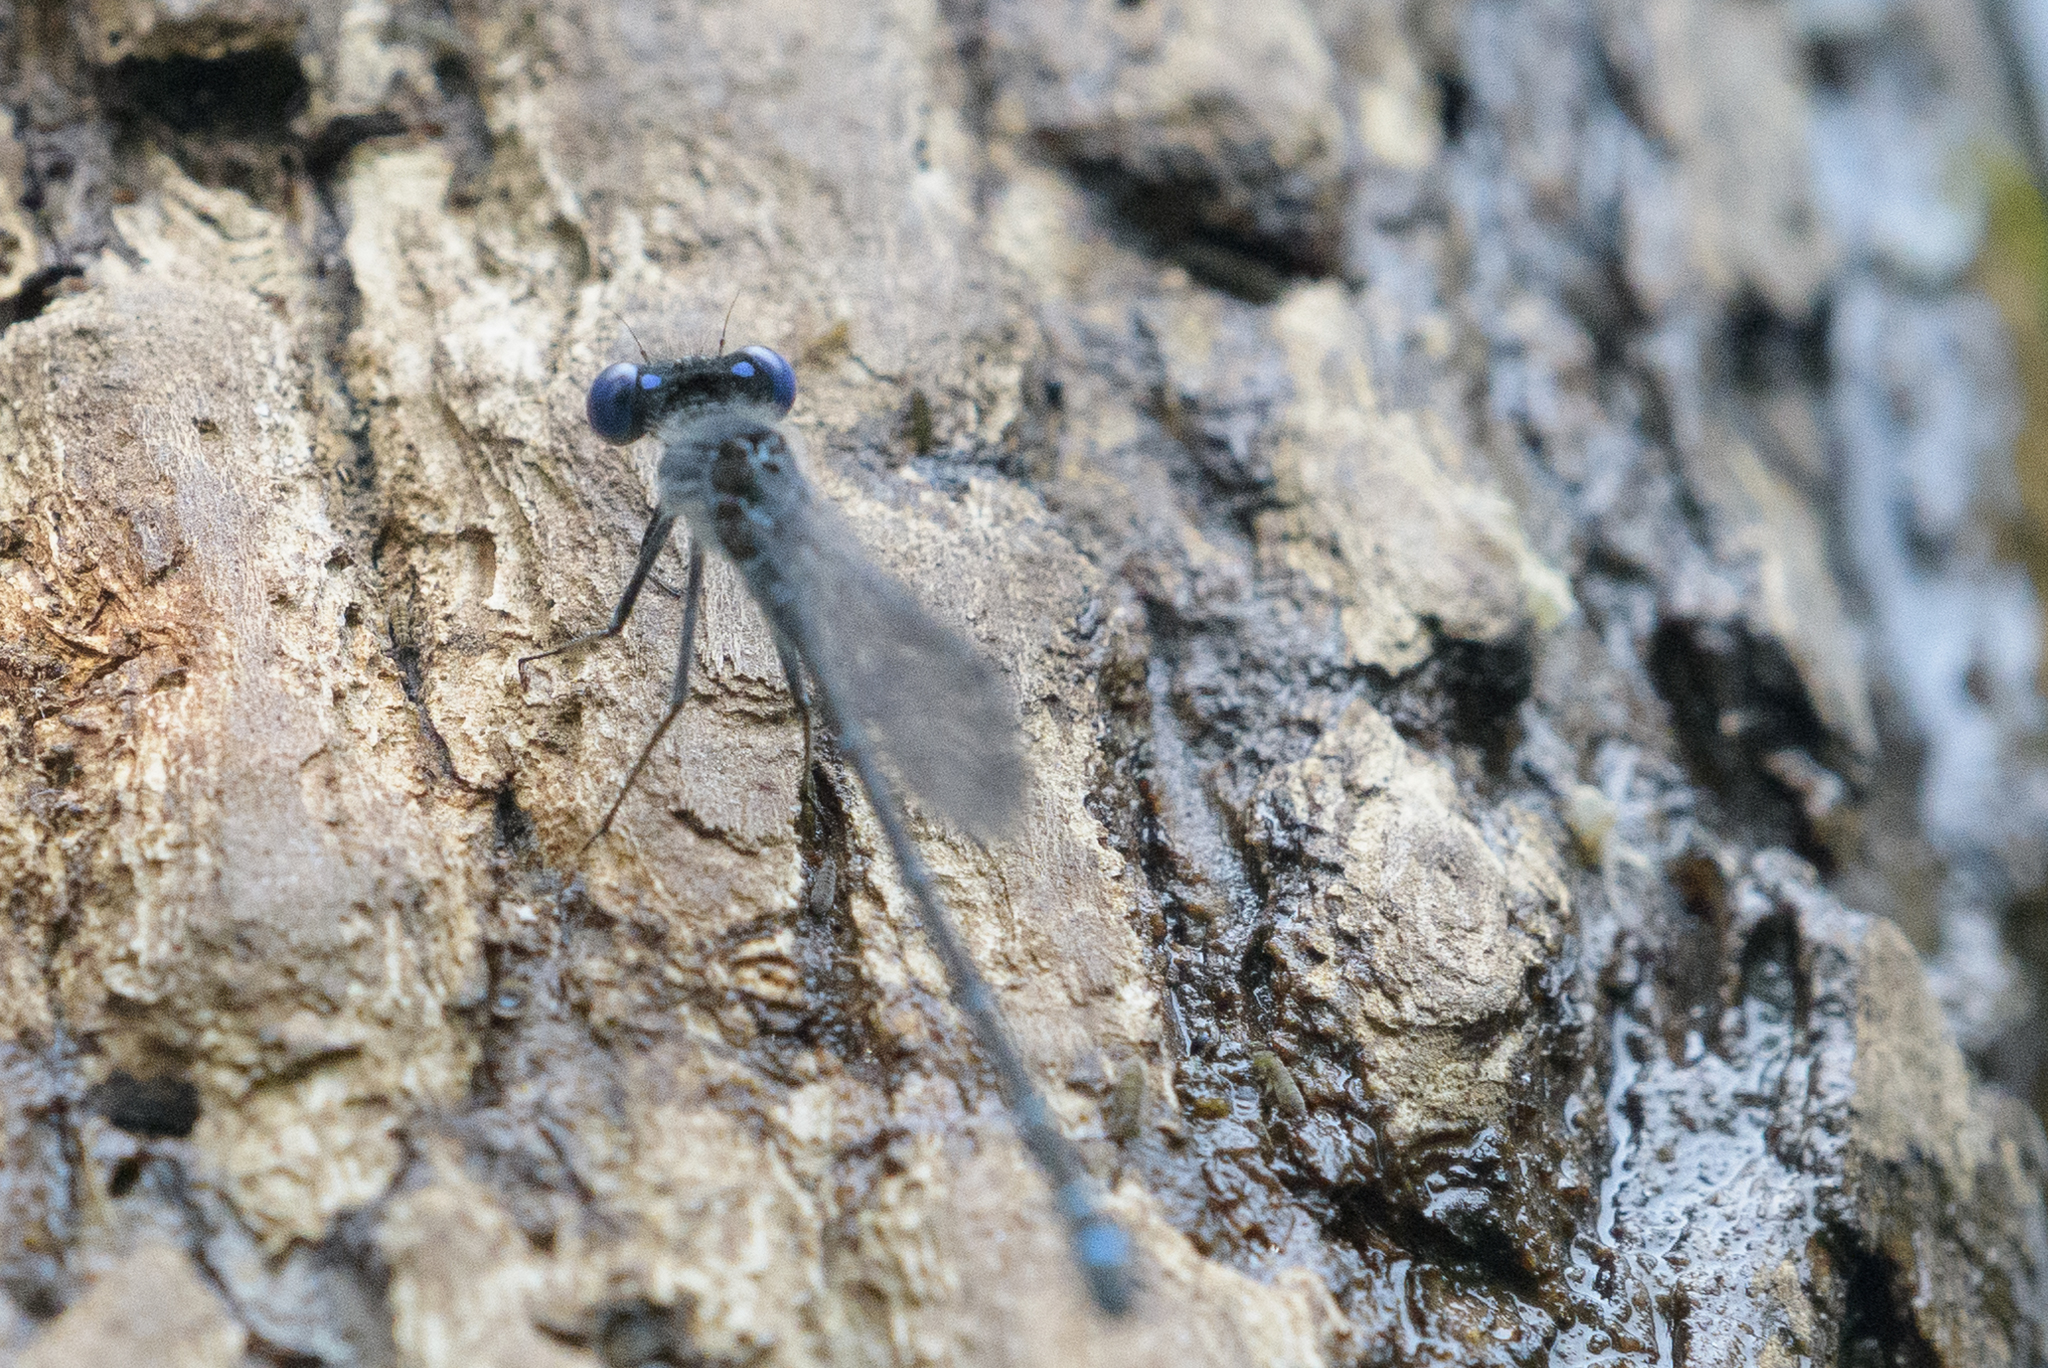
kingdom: Animalia
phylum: Arthropoda
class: Insecta
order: Odonata
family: Coenagrionidae
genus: Argia
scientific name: Argia translata
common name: Dusky dancer
